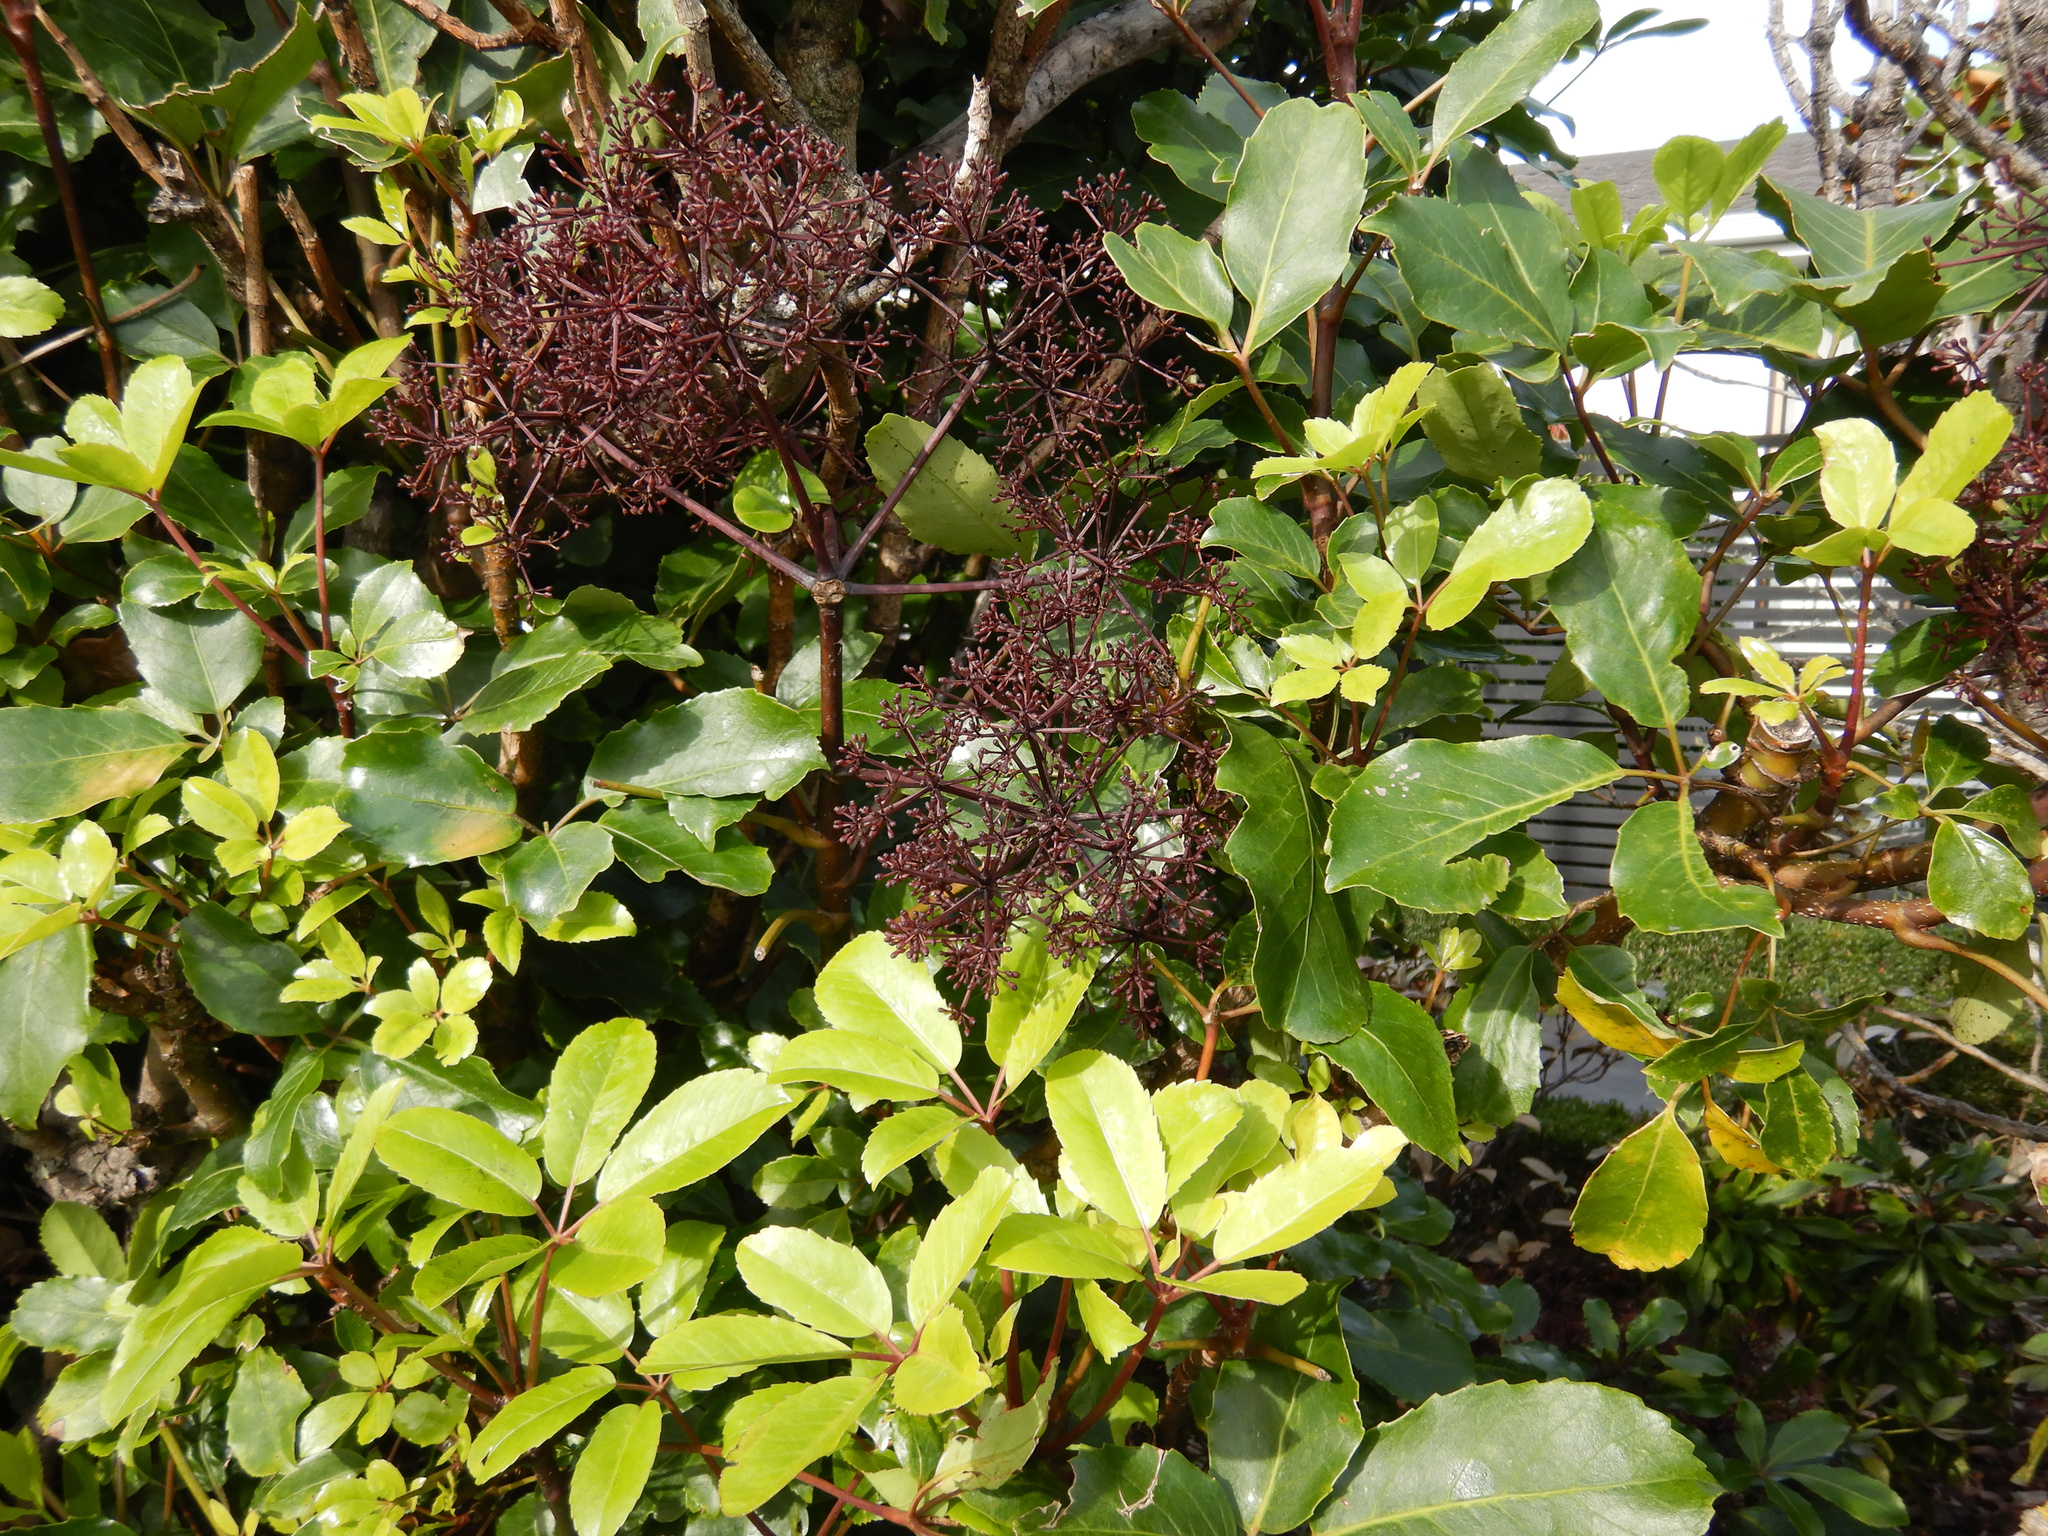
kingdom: Plantae
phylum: Tracheophyta
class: Magnoliopsida
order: Apiales
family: Araliaceae
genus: Neopanax
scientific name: Neopanax arboreus
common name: Five-fingers
